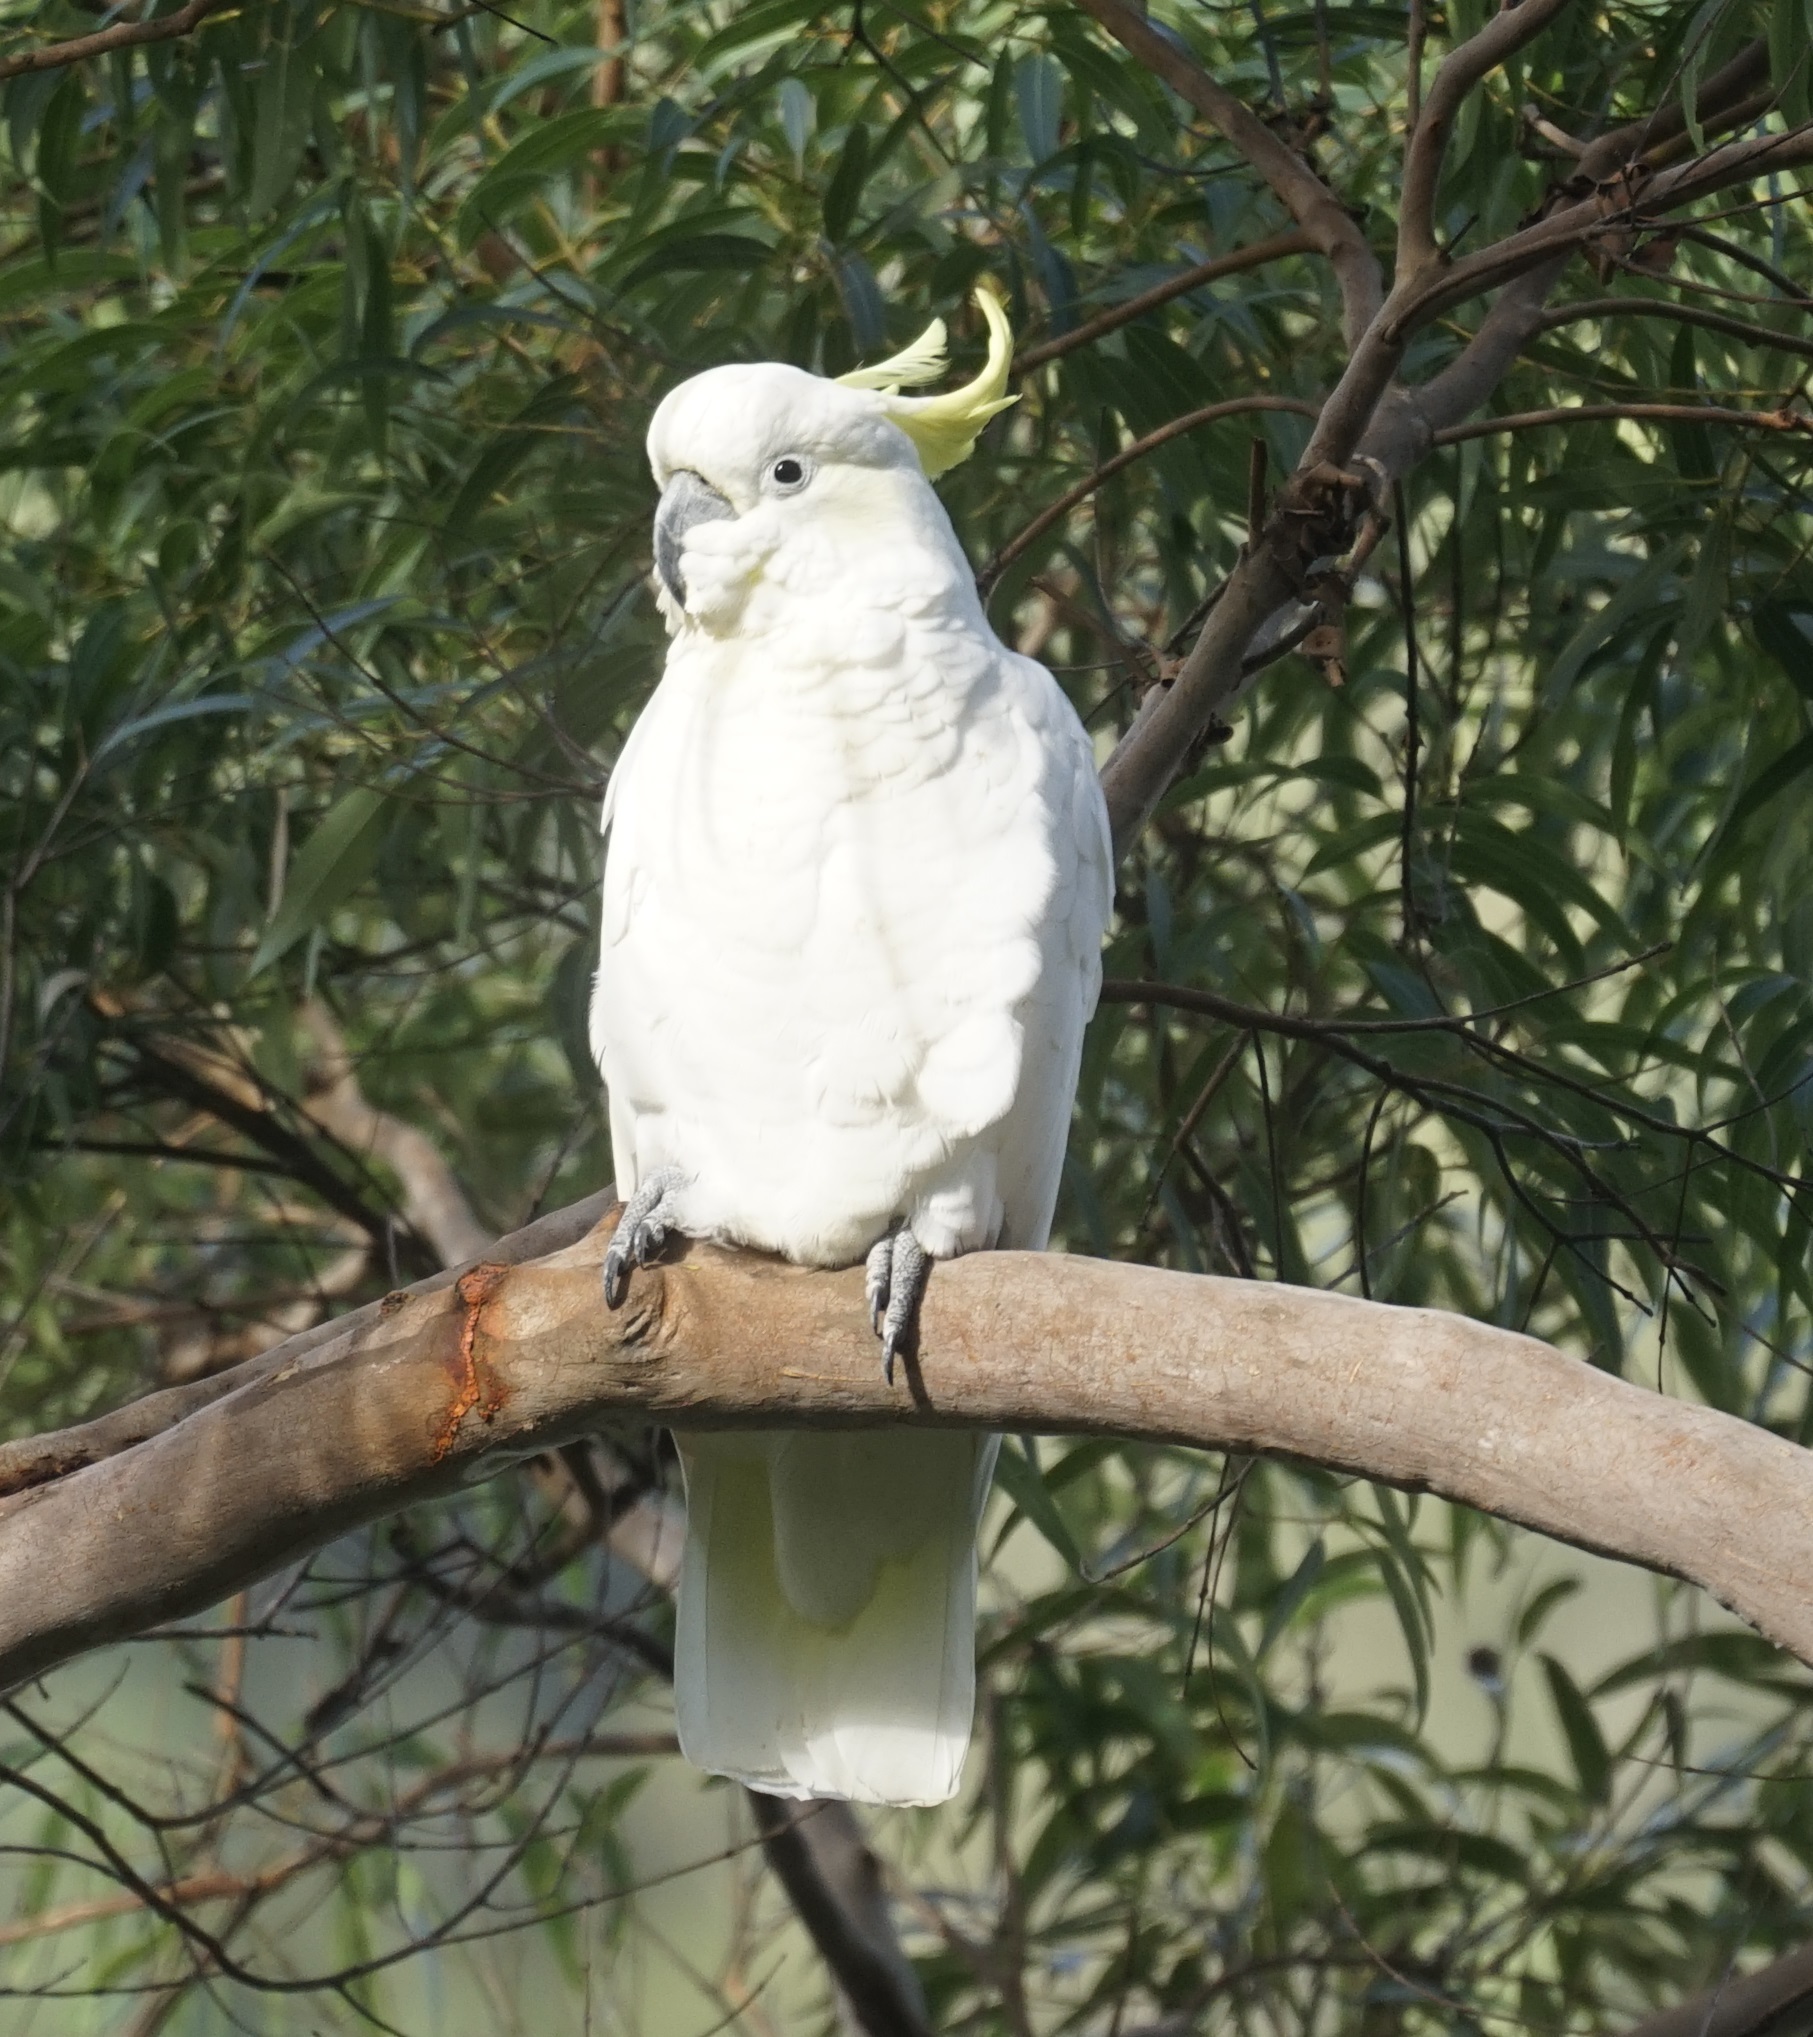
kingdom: Animalia
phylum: Chordata
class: Aves
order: Psittaciformes
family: Psittacidae
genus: Cacatua
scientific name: Cacatua galerita
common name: Sulphur-crested cockatoo
